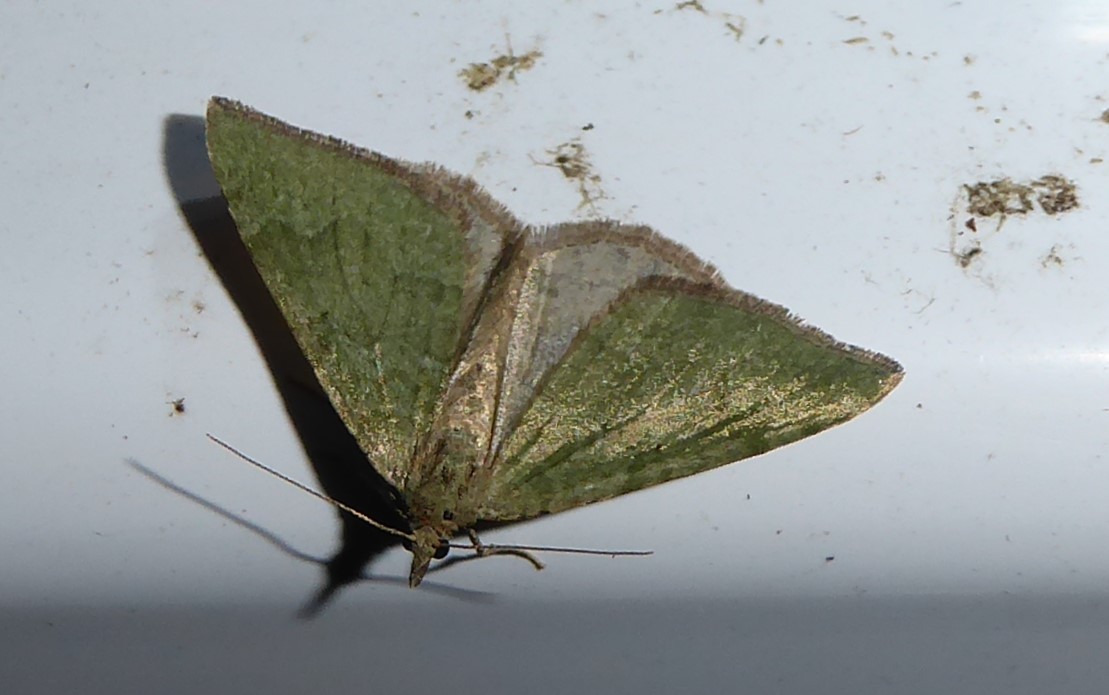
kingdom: Animalia
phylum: Arthropoda
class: Insecta
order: Lepidoptera
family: Geometridae
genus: Epyaxa
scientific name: Epyaxa rosearia
